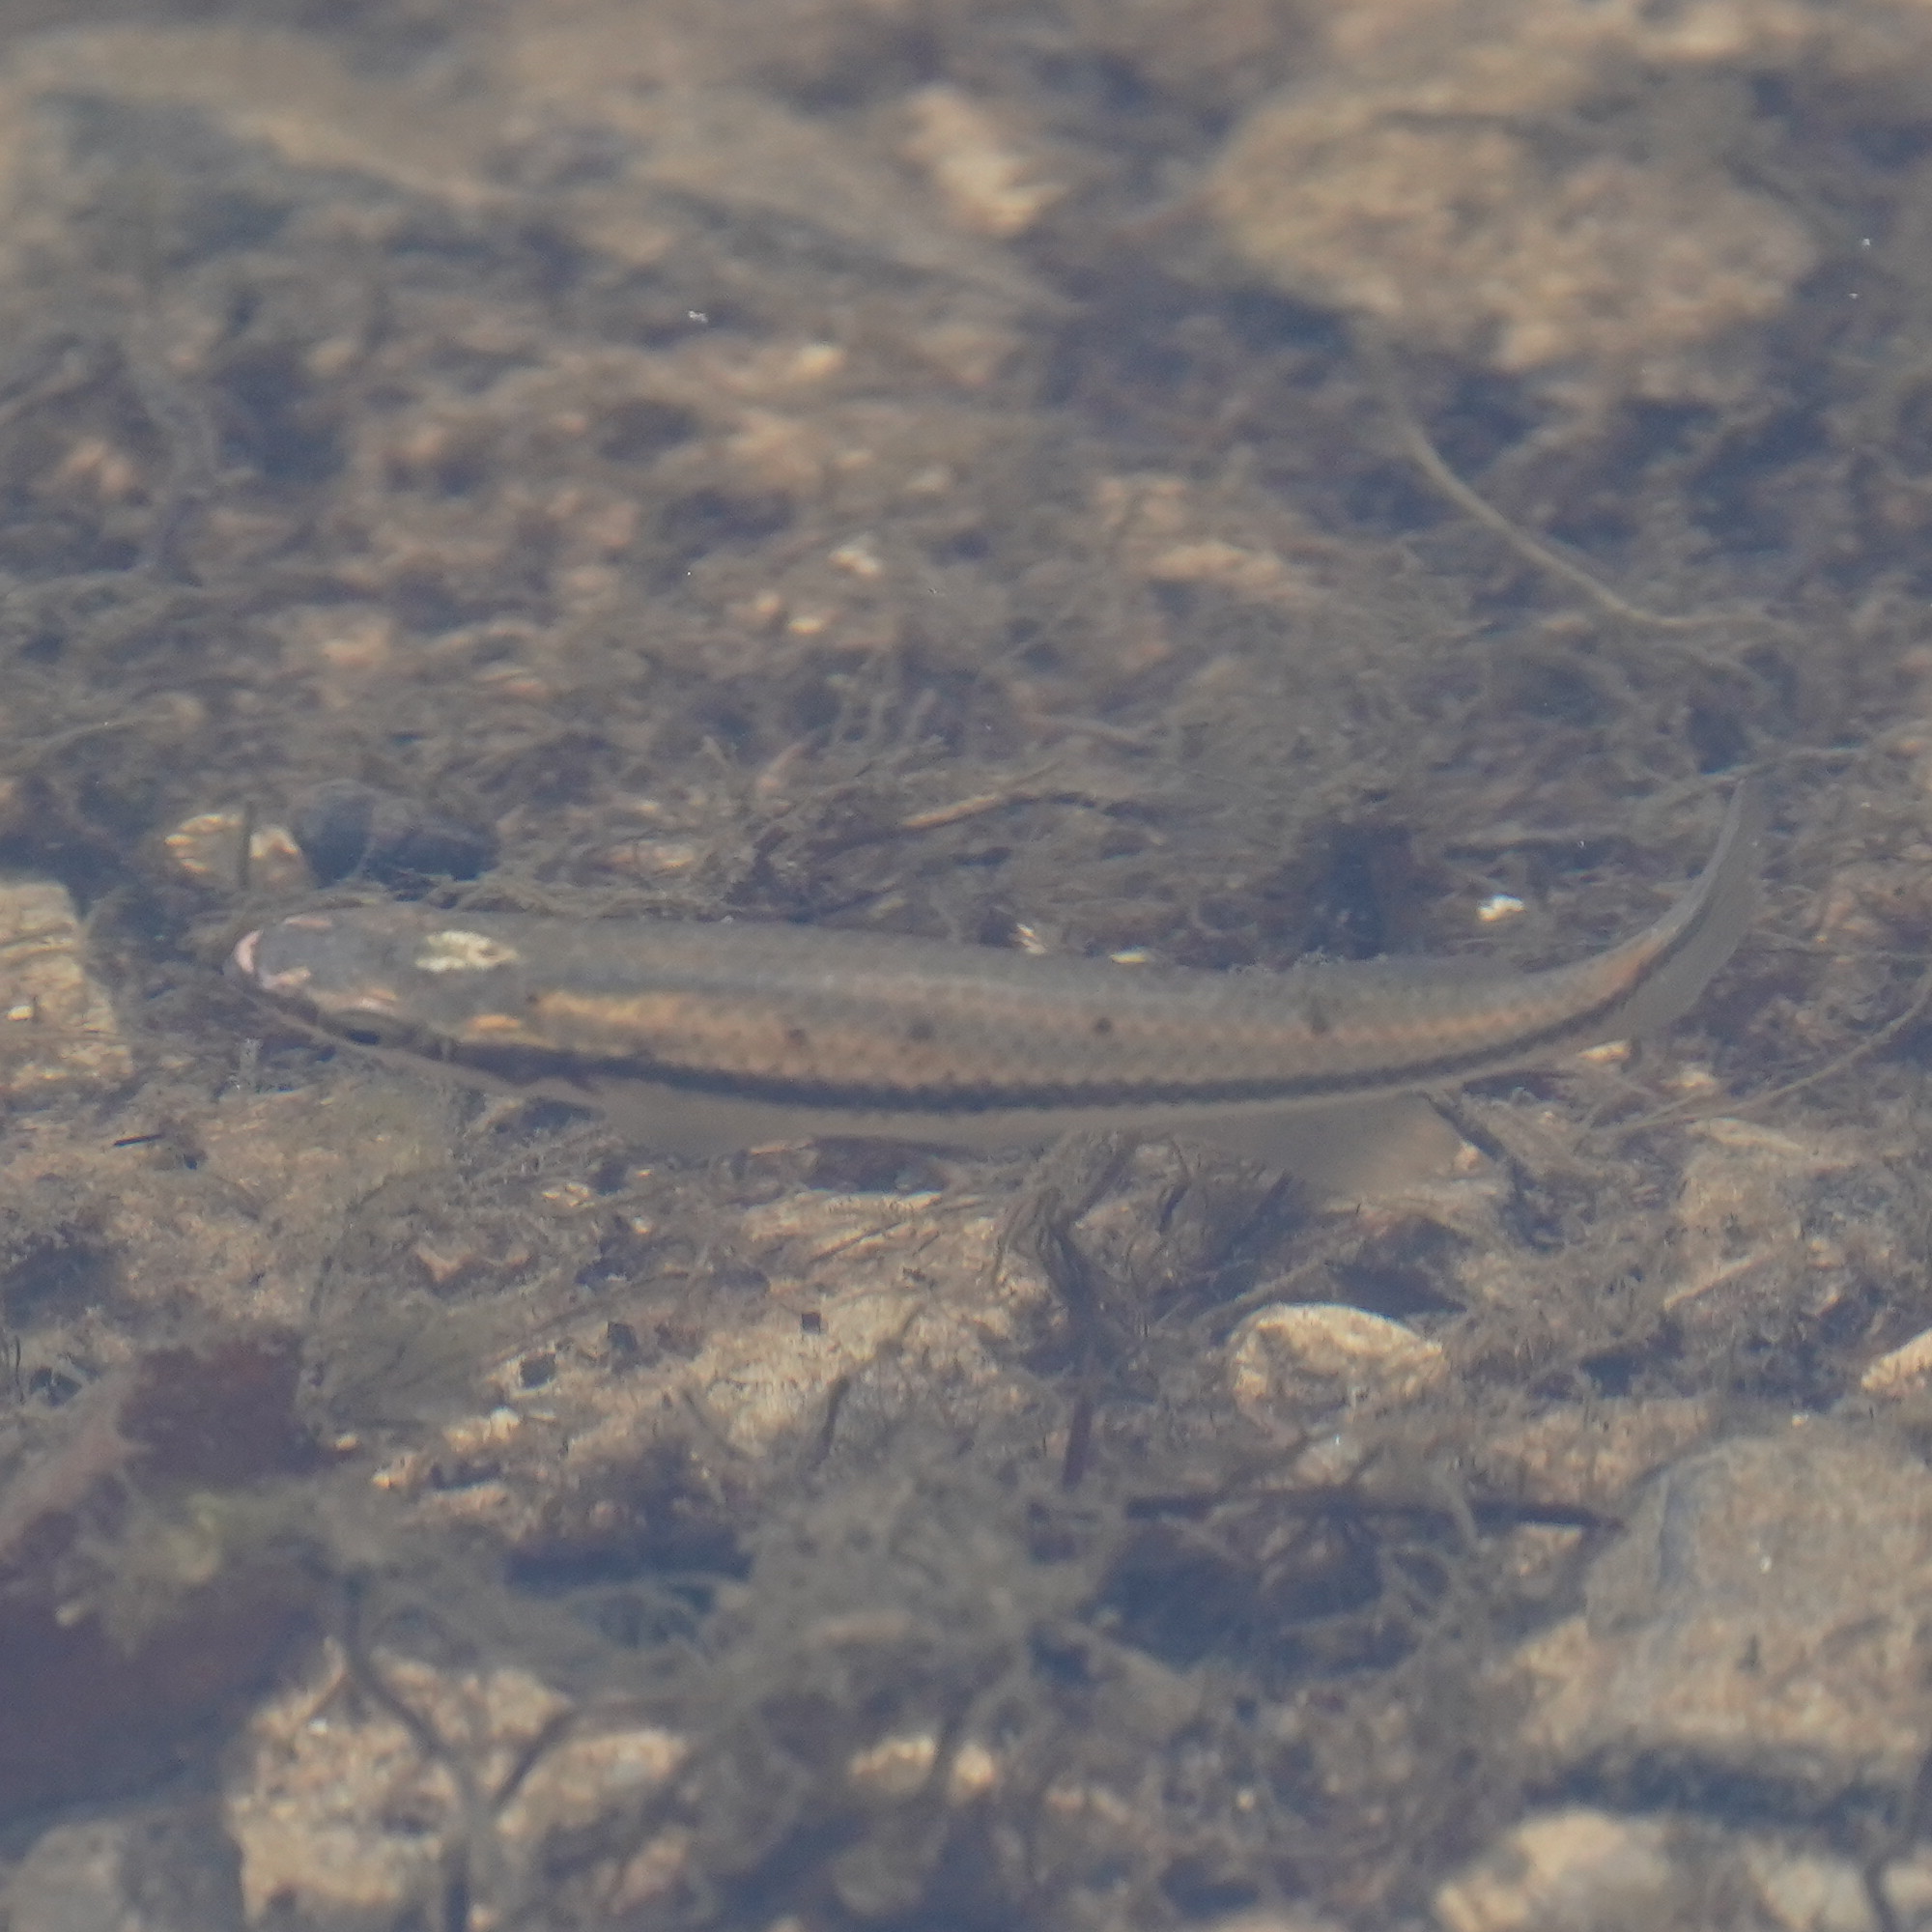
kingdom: Animalia
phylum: Chordata
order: Cyprinodontiformes
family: Fundulidae
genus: Fundulus
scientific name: Fundulus notatus
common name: Blackstripe topminnow
